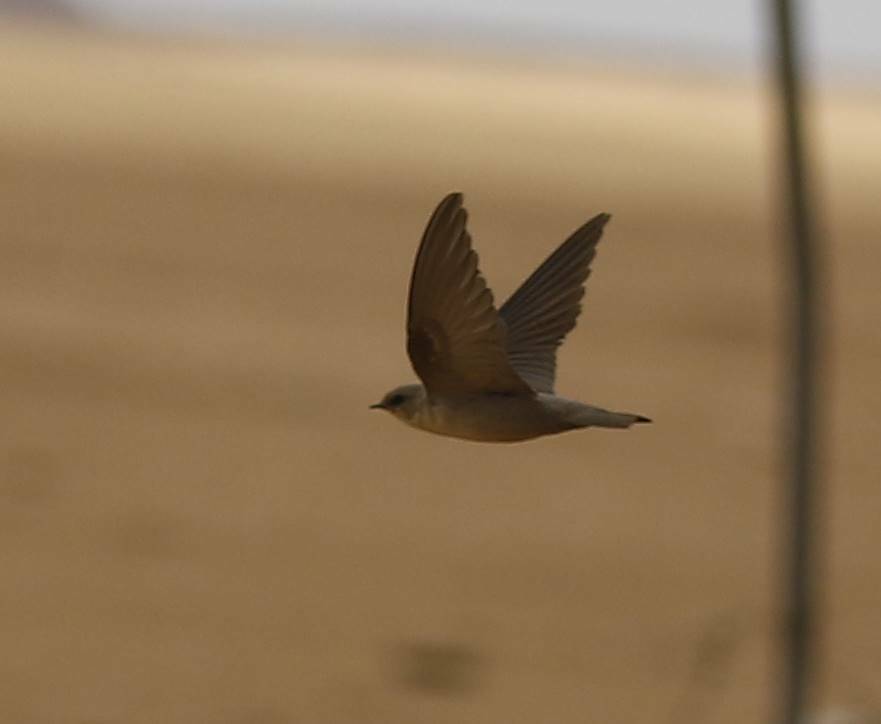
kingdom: Animalia
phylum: Chordata
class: Aves
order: Passeriformes
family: Hirundinidae
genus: Ptyonoprogne
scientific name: Ptyonoprogne fuligula
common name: Rock martin
